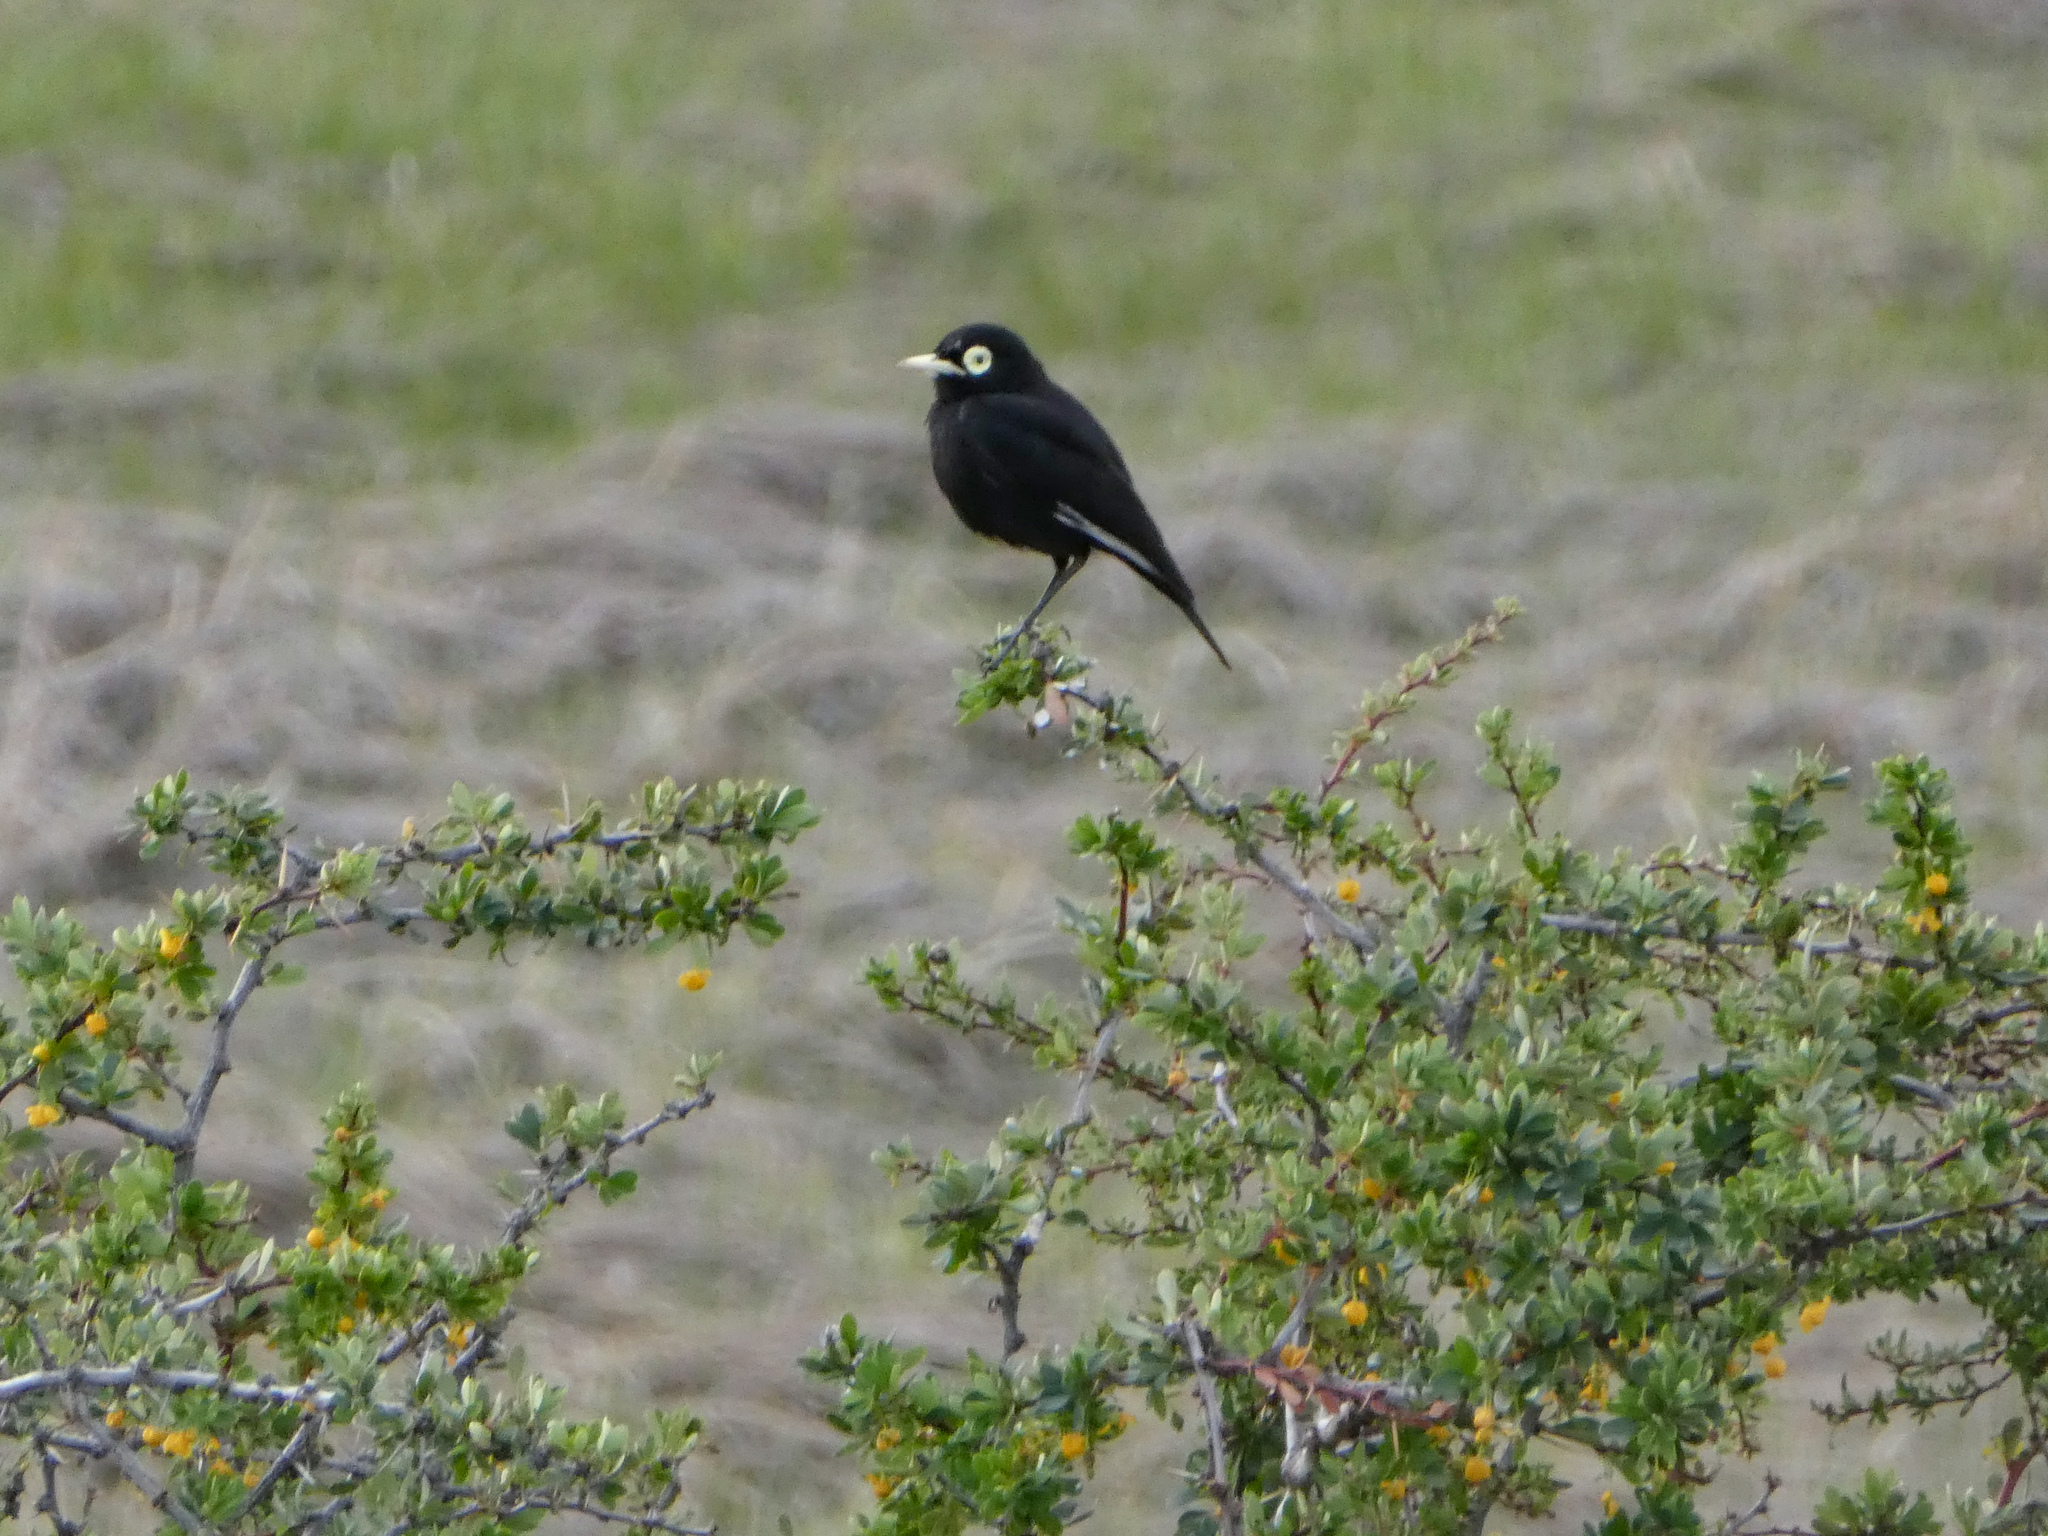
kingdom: Animalia
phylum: Chordata
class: Aves
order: Passeriformes
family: Tyrannidae
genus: Hymenops
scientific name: Hymenops perspicillatus
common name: Spectacled tyrant
